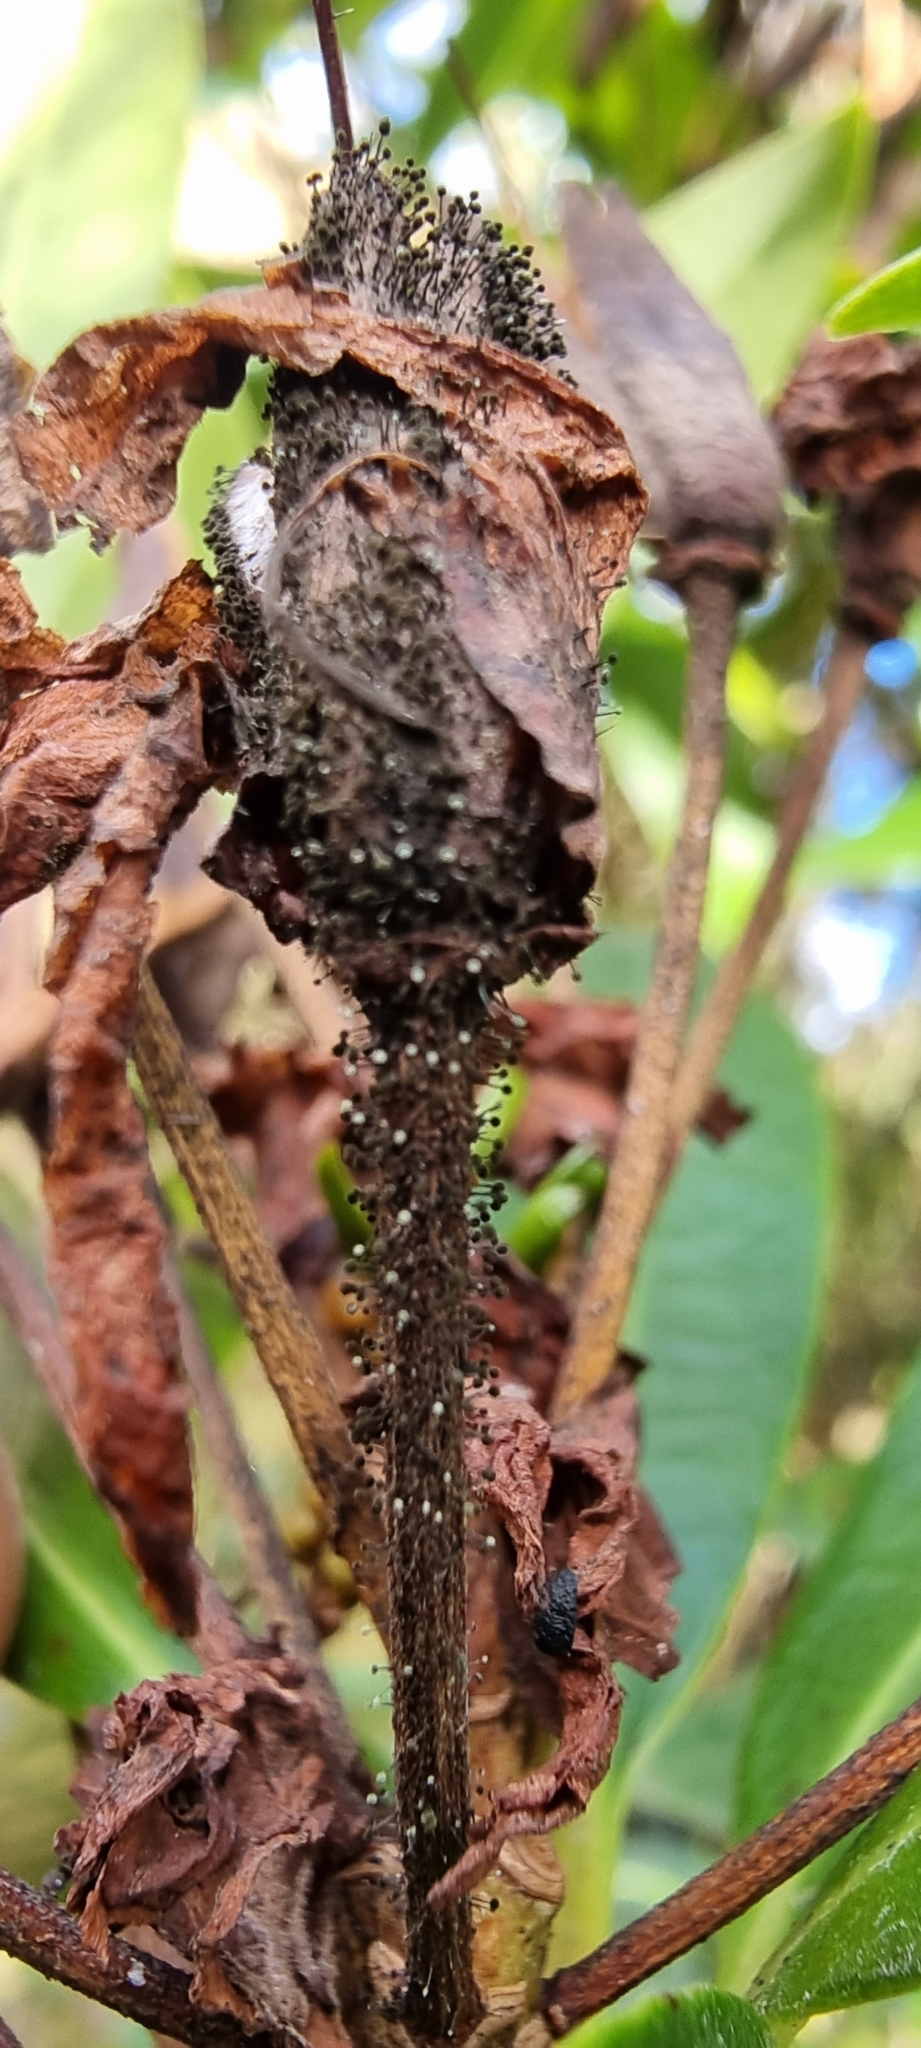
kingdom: Fungi
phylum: Ascomycota
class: Dothideomycetes
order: Pleosporales
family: Melanommataceae
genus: Seifertia
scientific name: Seifertia azaleae
